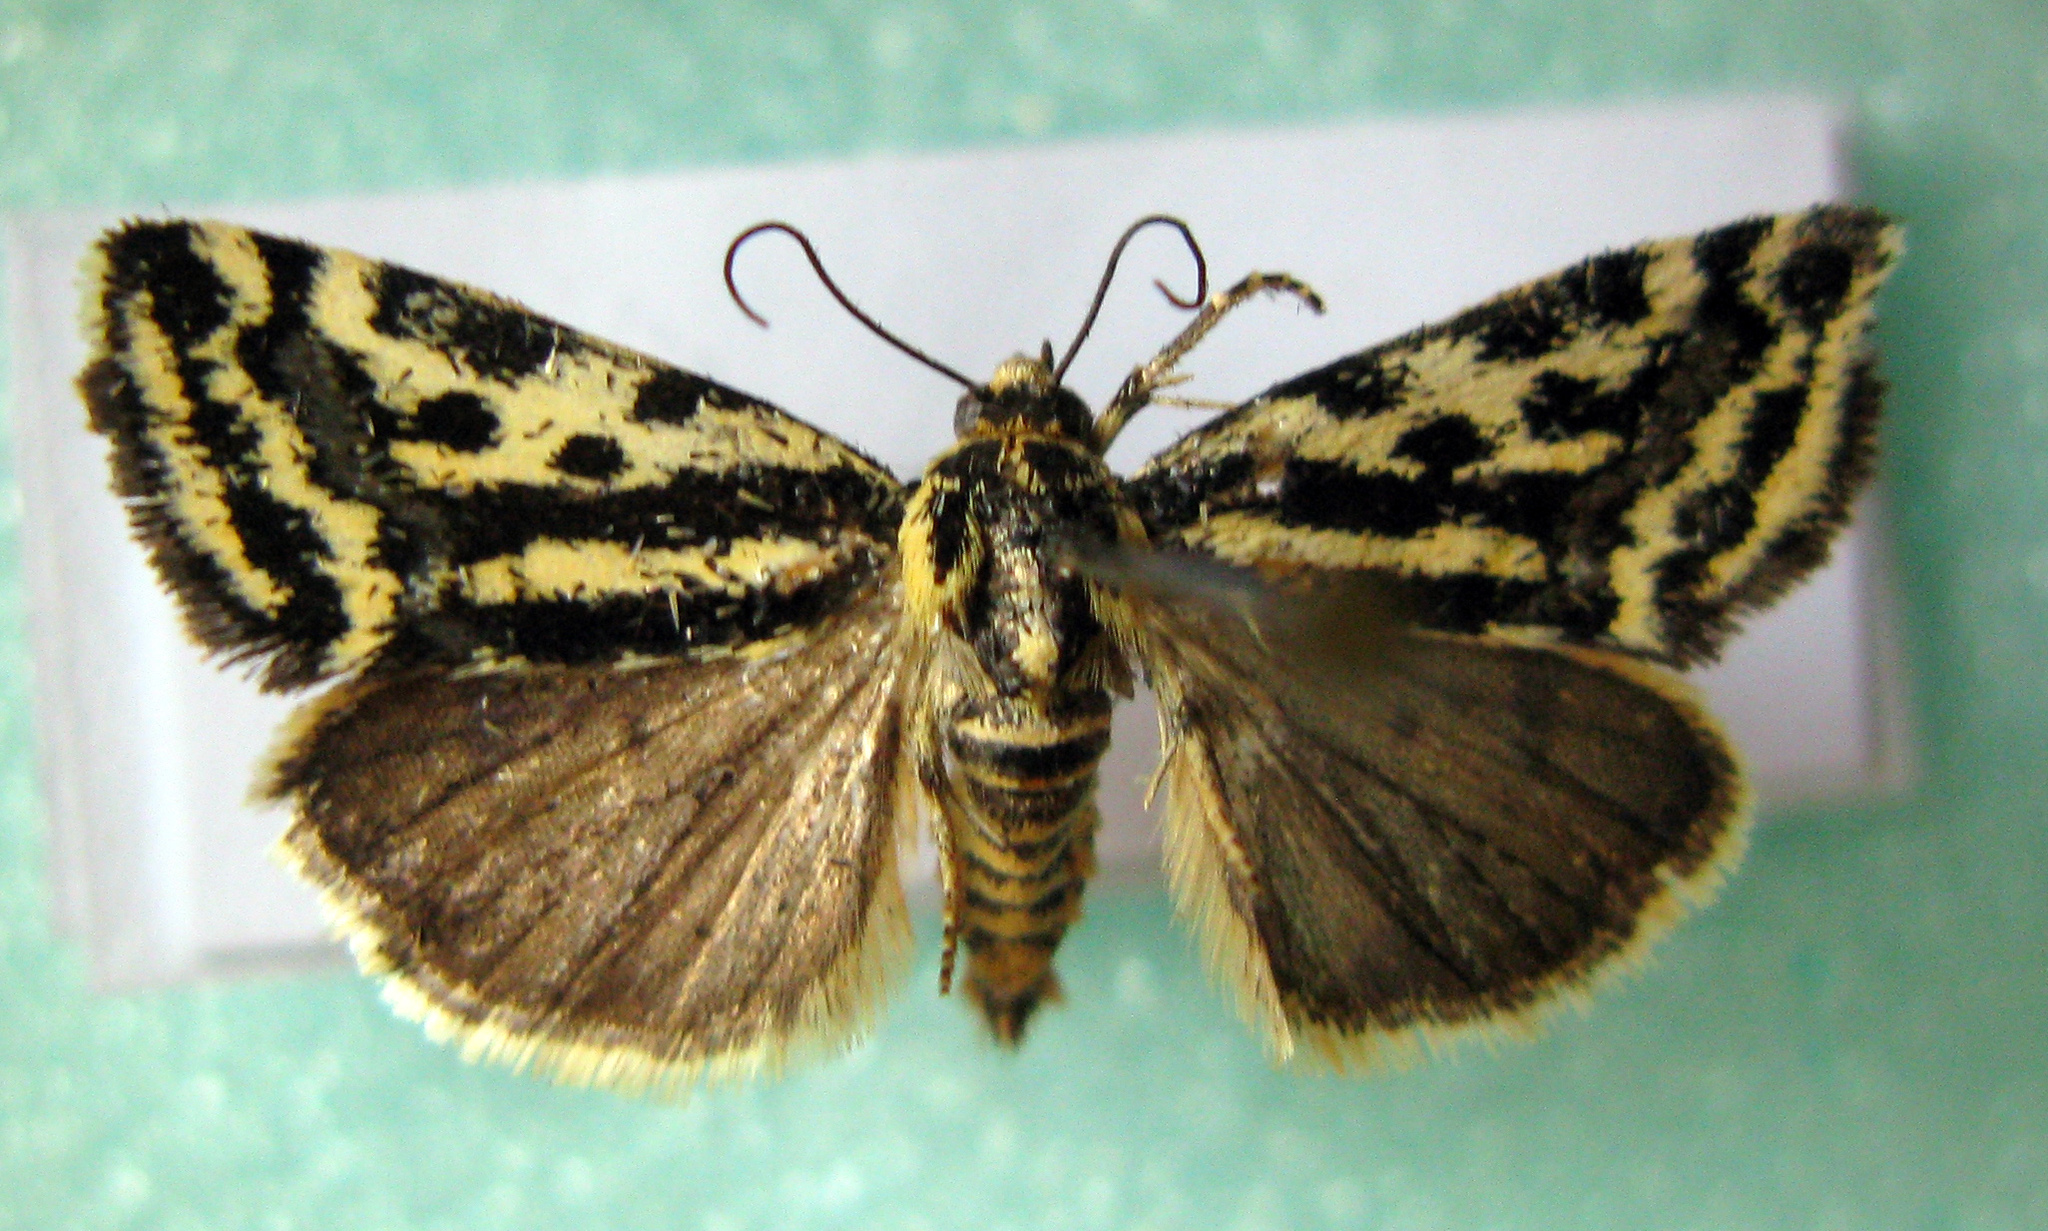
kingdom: Animalia
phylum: Arthropoda
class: Insecta
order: Lepidoptera
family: Noctuidae
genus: Acontia
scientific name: Acontia trabealis
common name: Spotted sulphur
